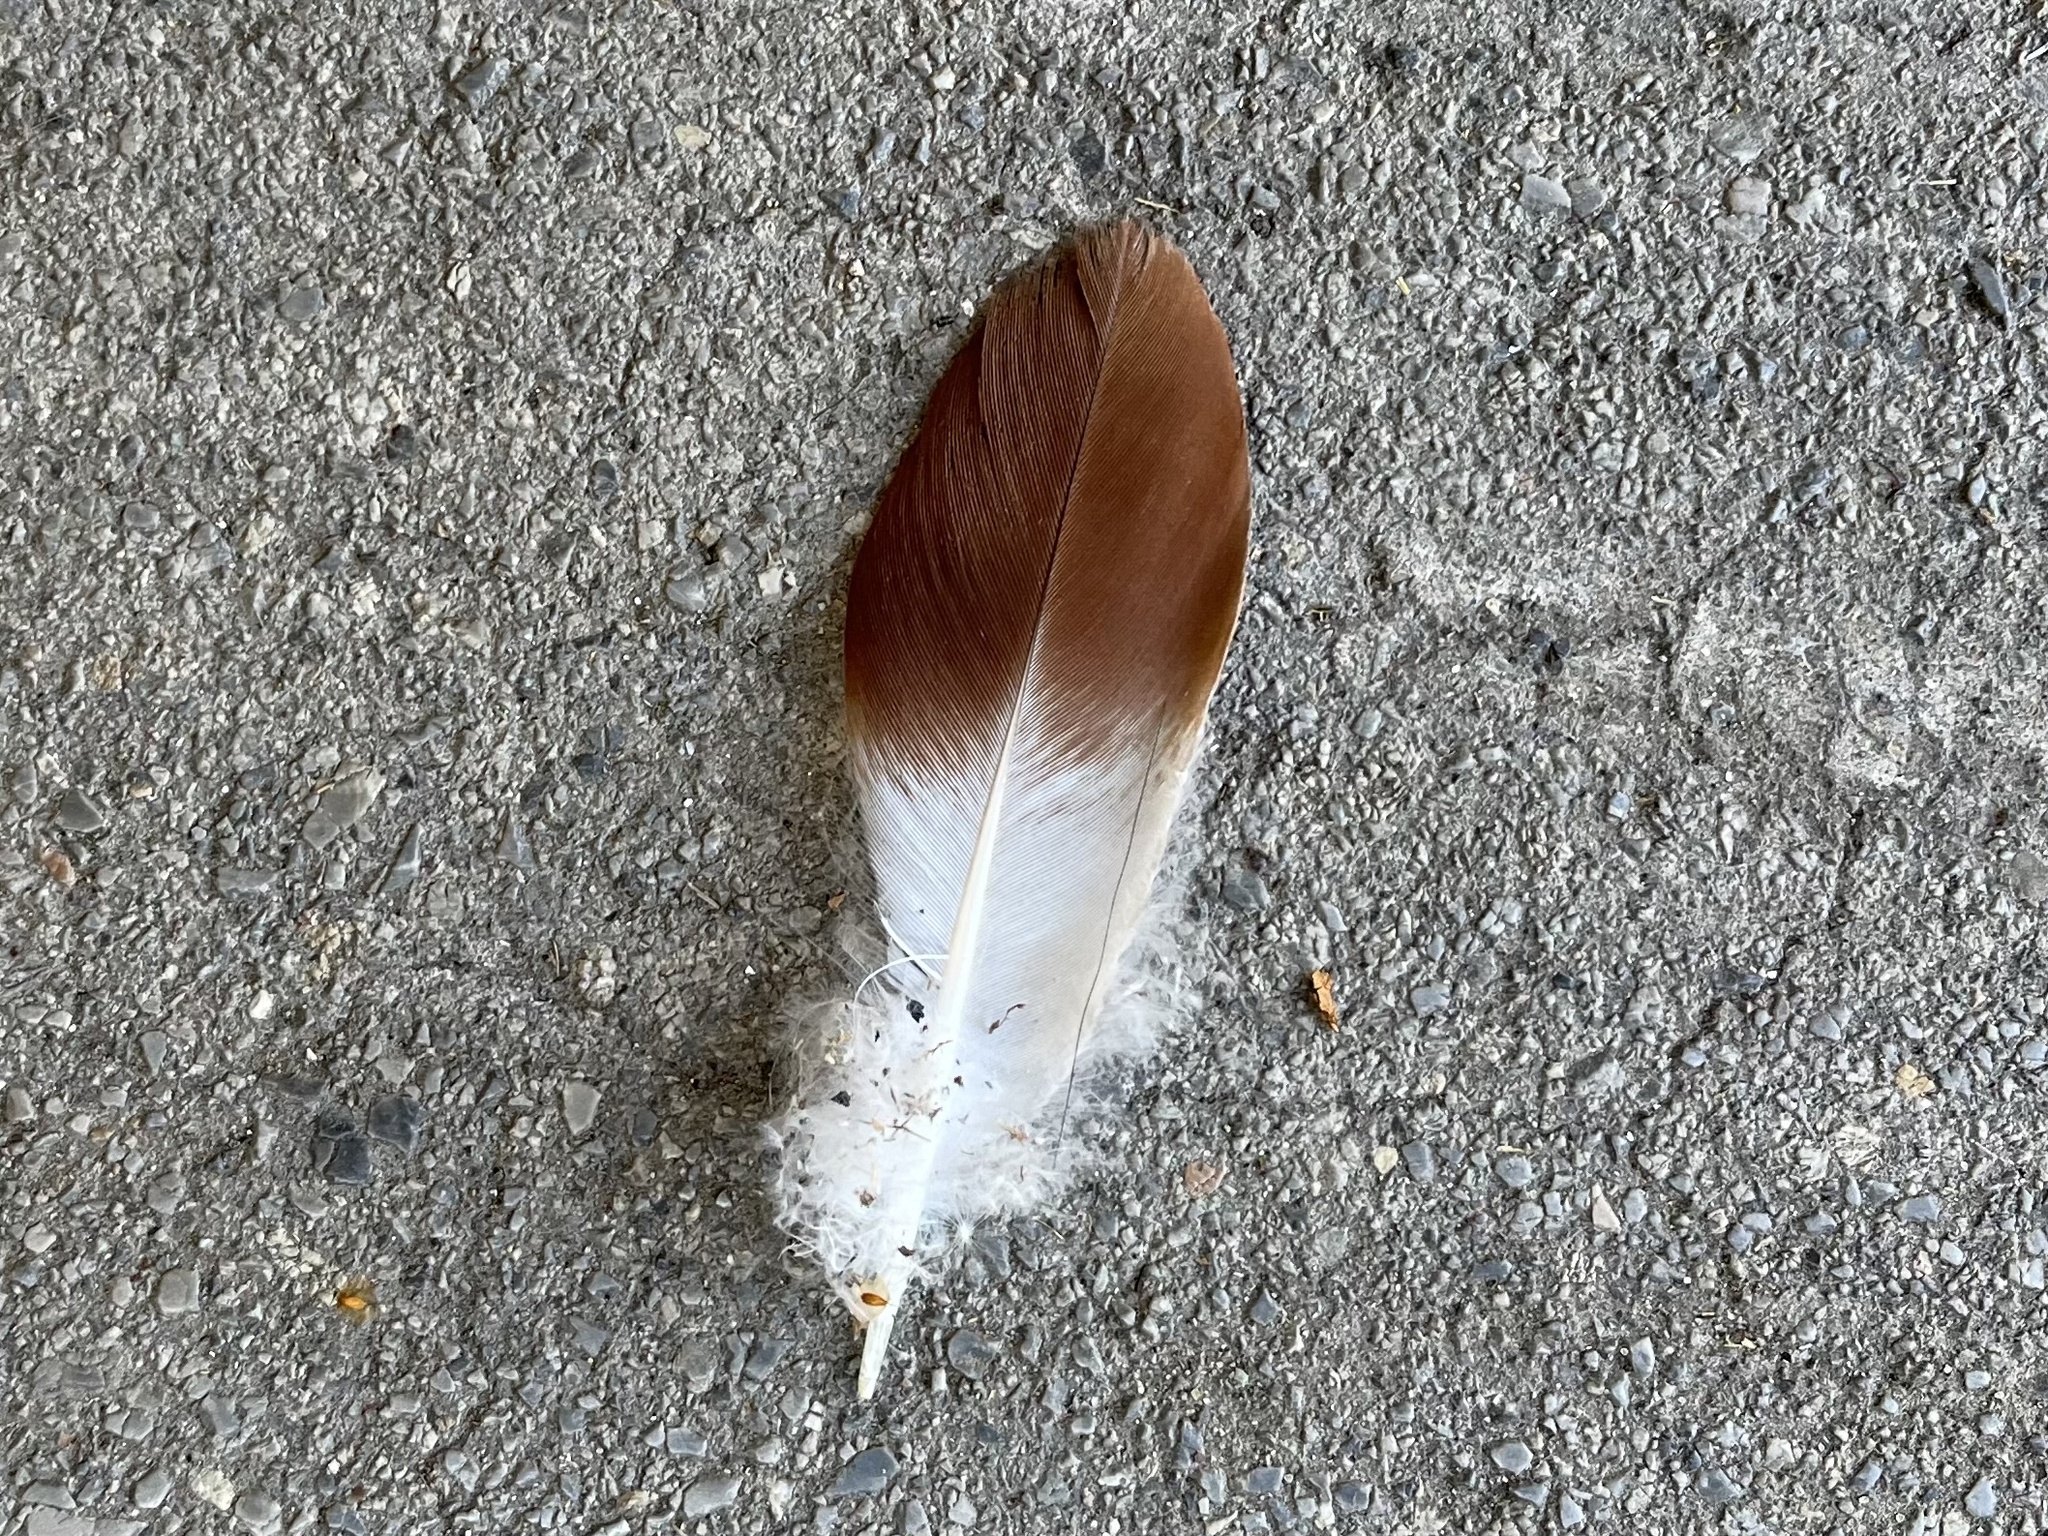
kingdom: Animalia
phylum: Chordata
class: Aves
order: Columbiformes
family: Columbidae
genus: Columba
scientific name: Columba livia
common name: Rock pigeon
